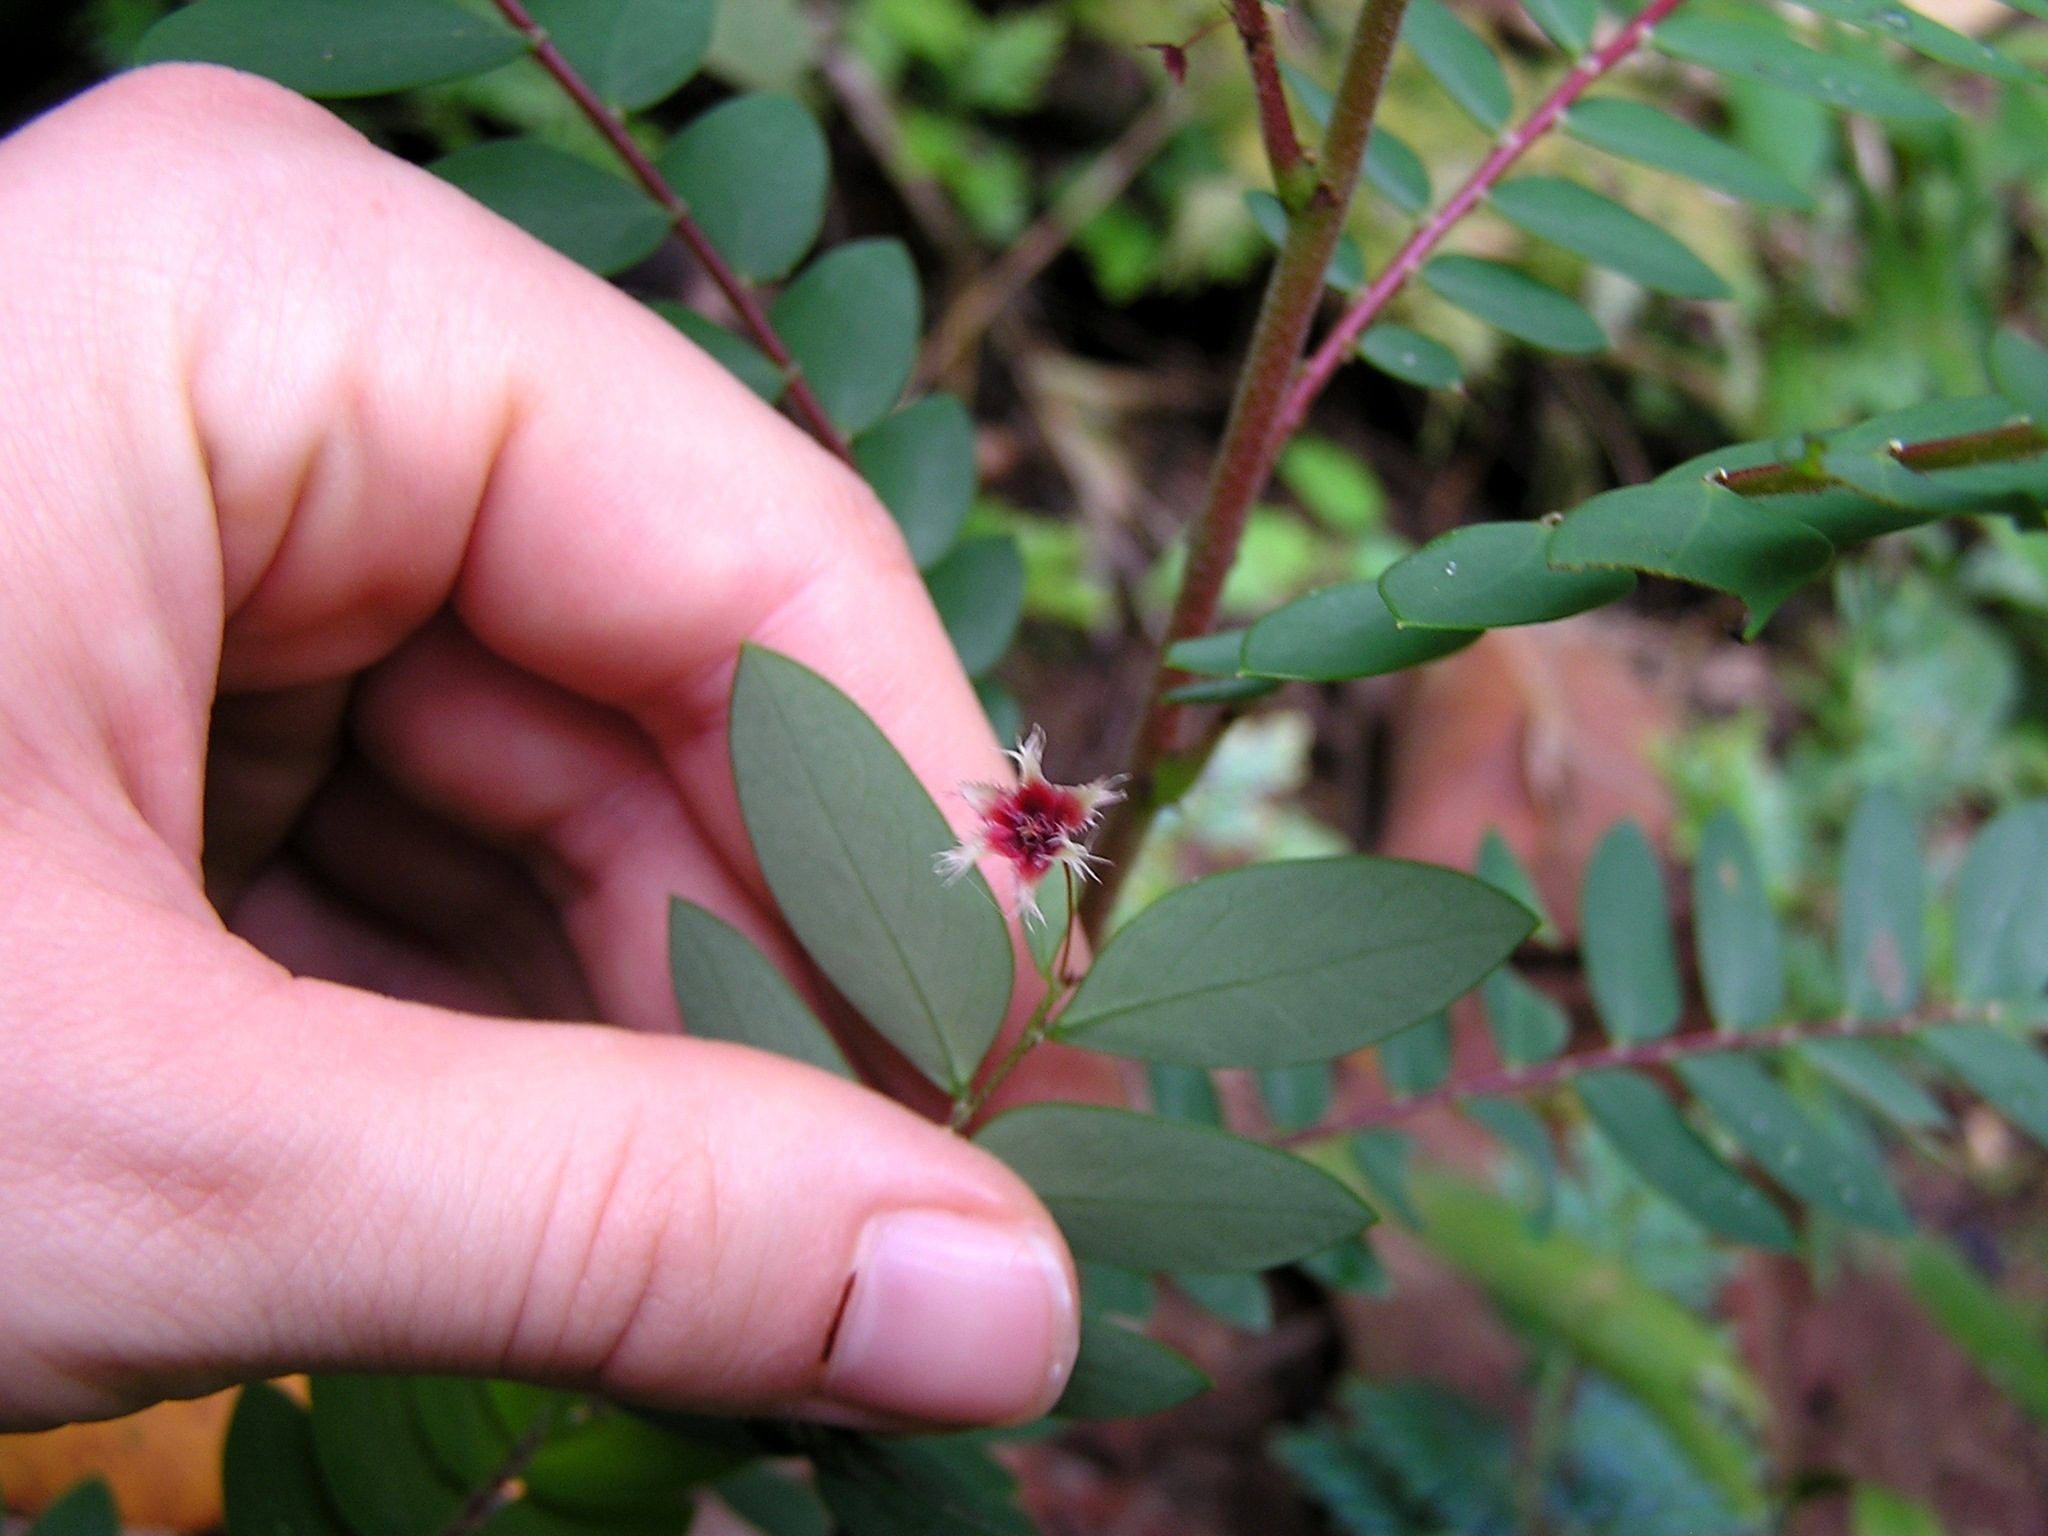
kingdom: Plantae
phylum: Tracheophyta
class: Magnoliopsida
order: Malpighiales
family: Phyllanthaceae
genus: Phyllanthus
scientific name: Phyllanthus pulcher
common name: Dragon-of-the-world
